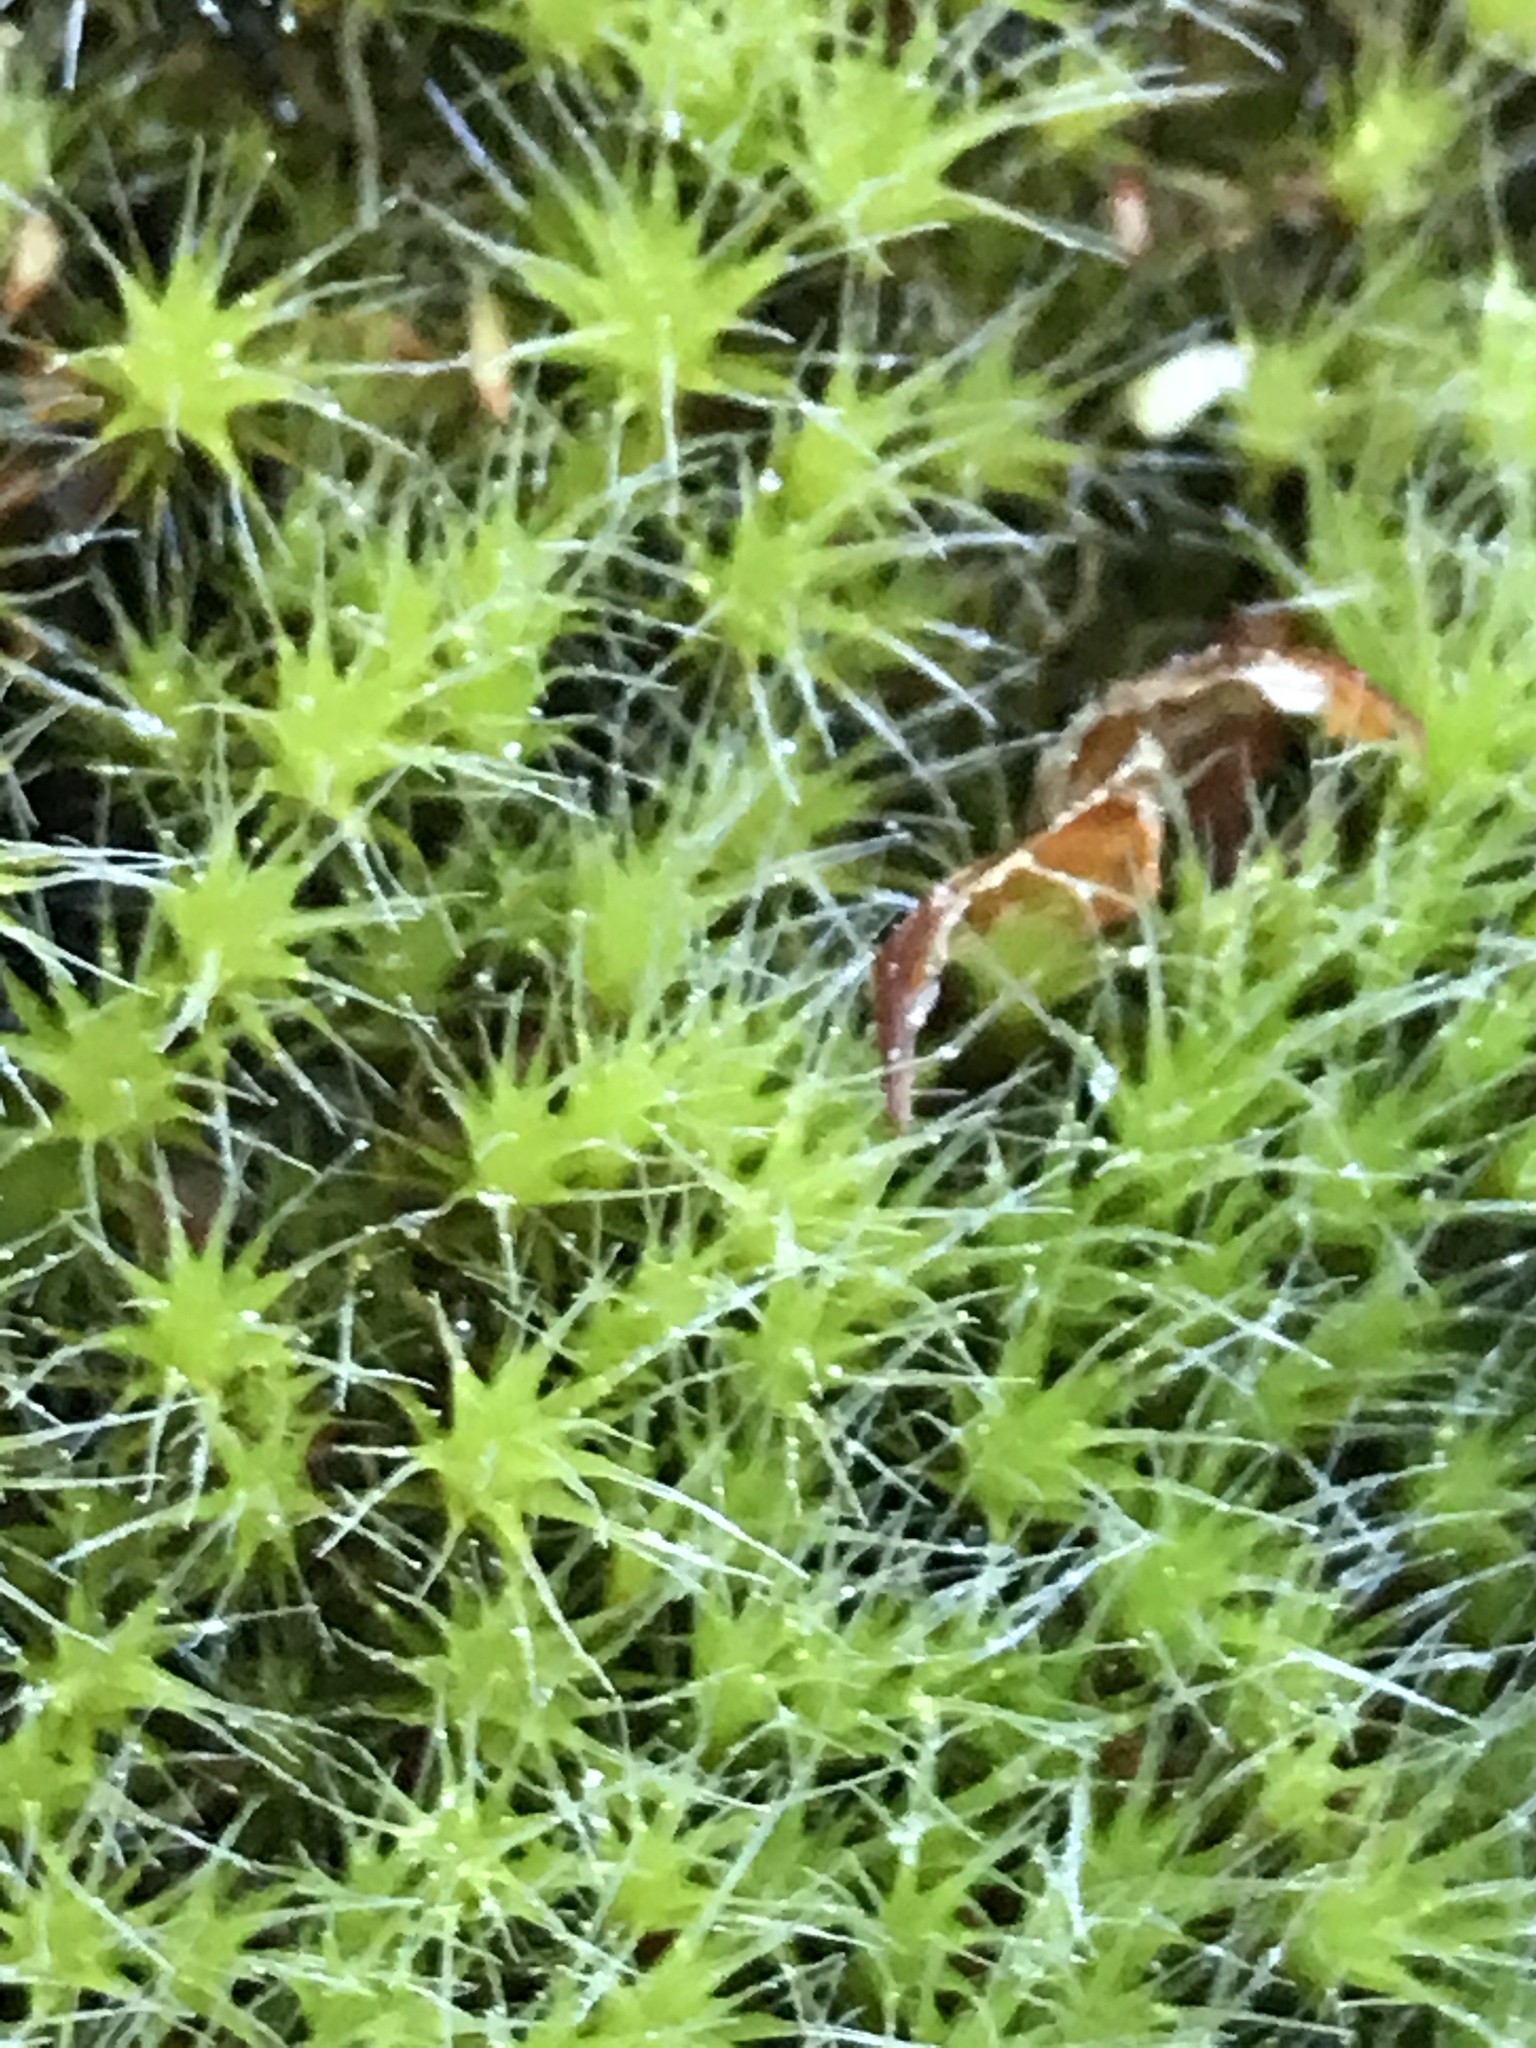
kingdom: Plantae
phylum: Bryophyta
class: Bryopsida
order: Dicranales
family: Leucobryaceae
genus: Campylopus
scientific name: Campylopus introflexus
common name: Heath star moss
